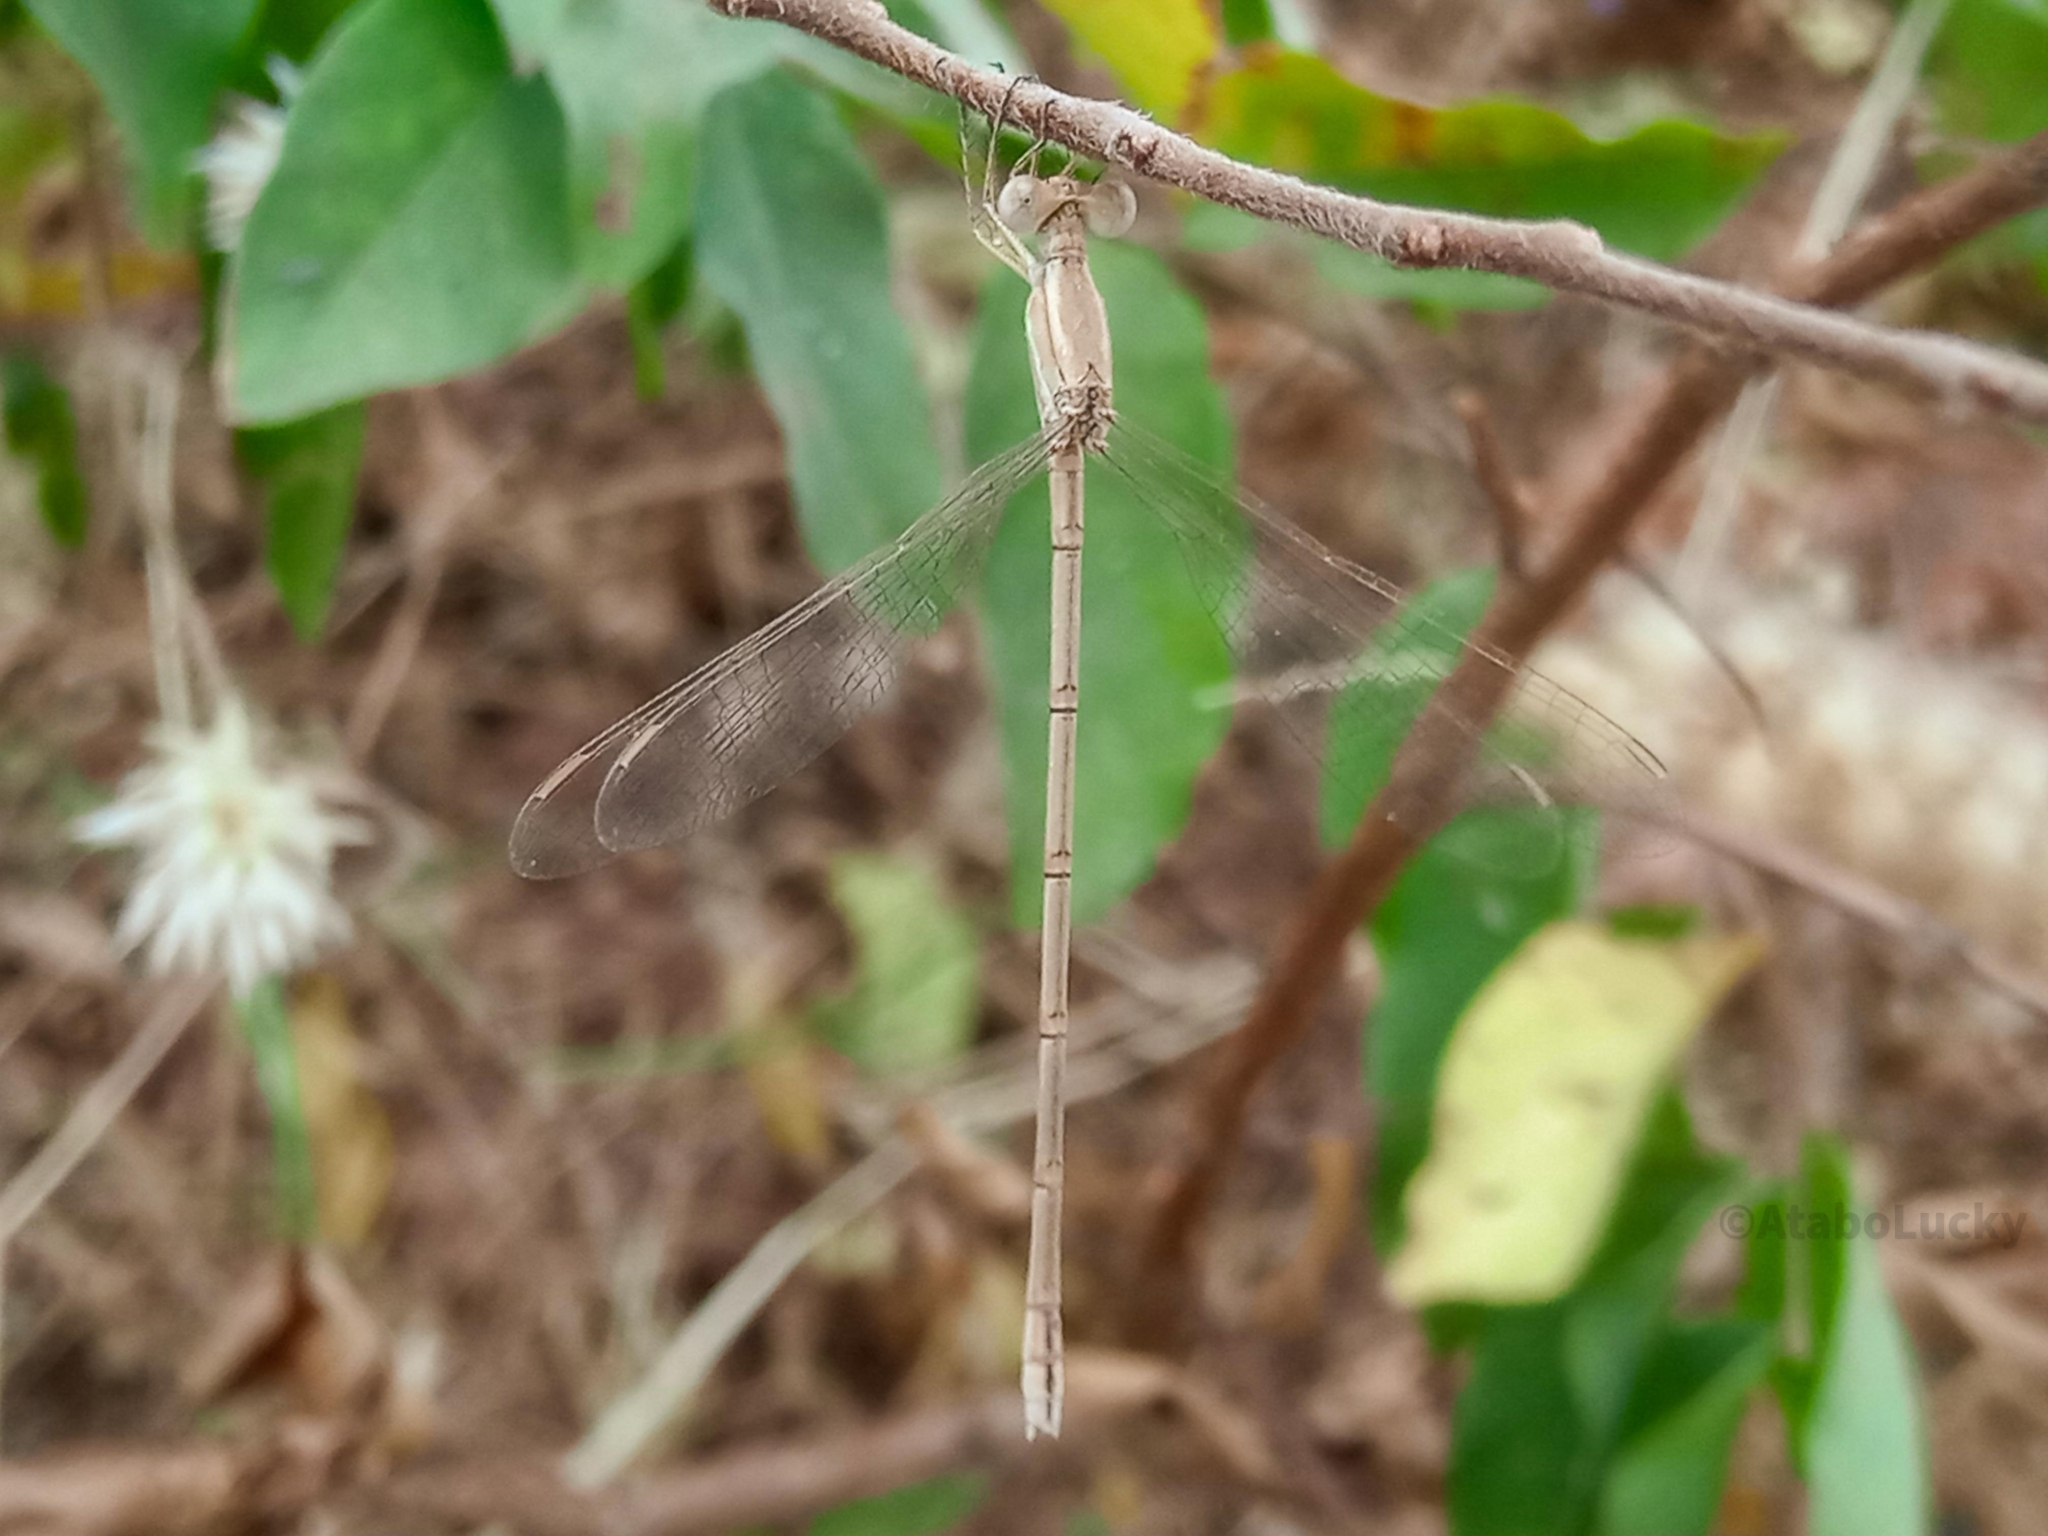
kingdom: Animalia
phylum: Arthropoda
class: Insecta
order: Odonata
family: Lestidae
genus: Lestes
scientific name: Lestes pallidus
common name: Pallid spreadwing
